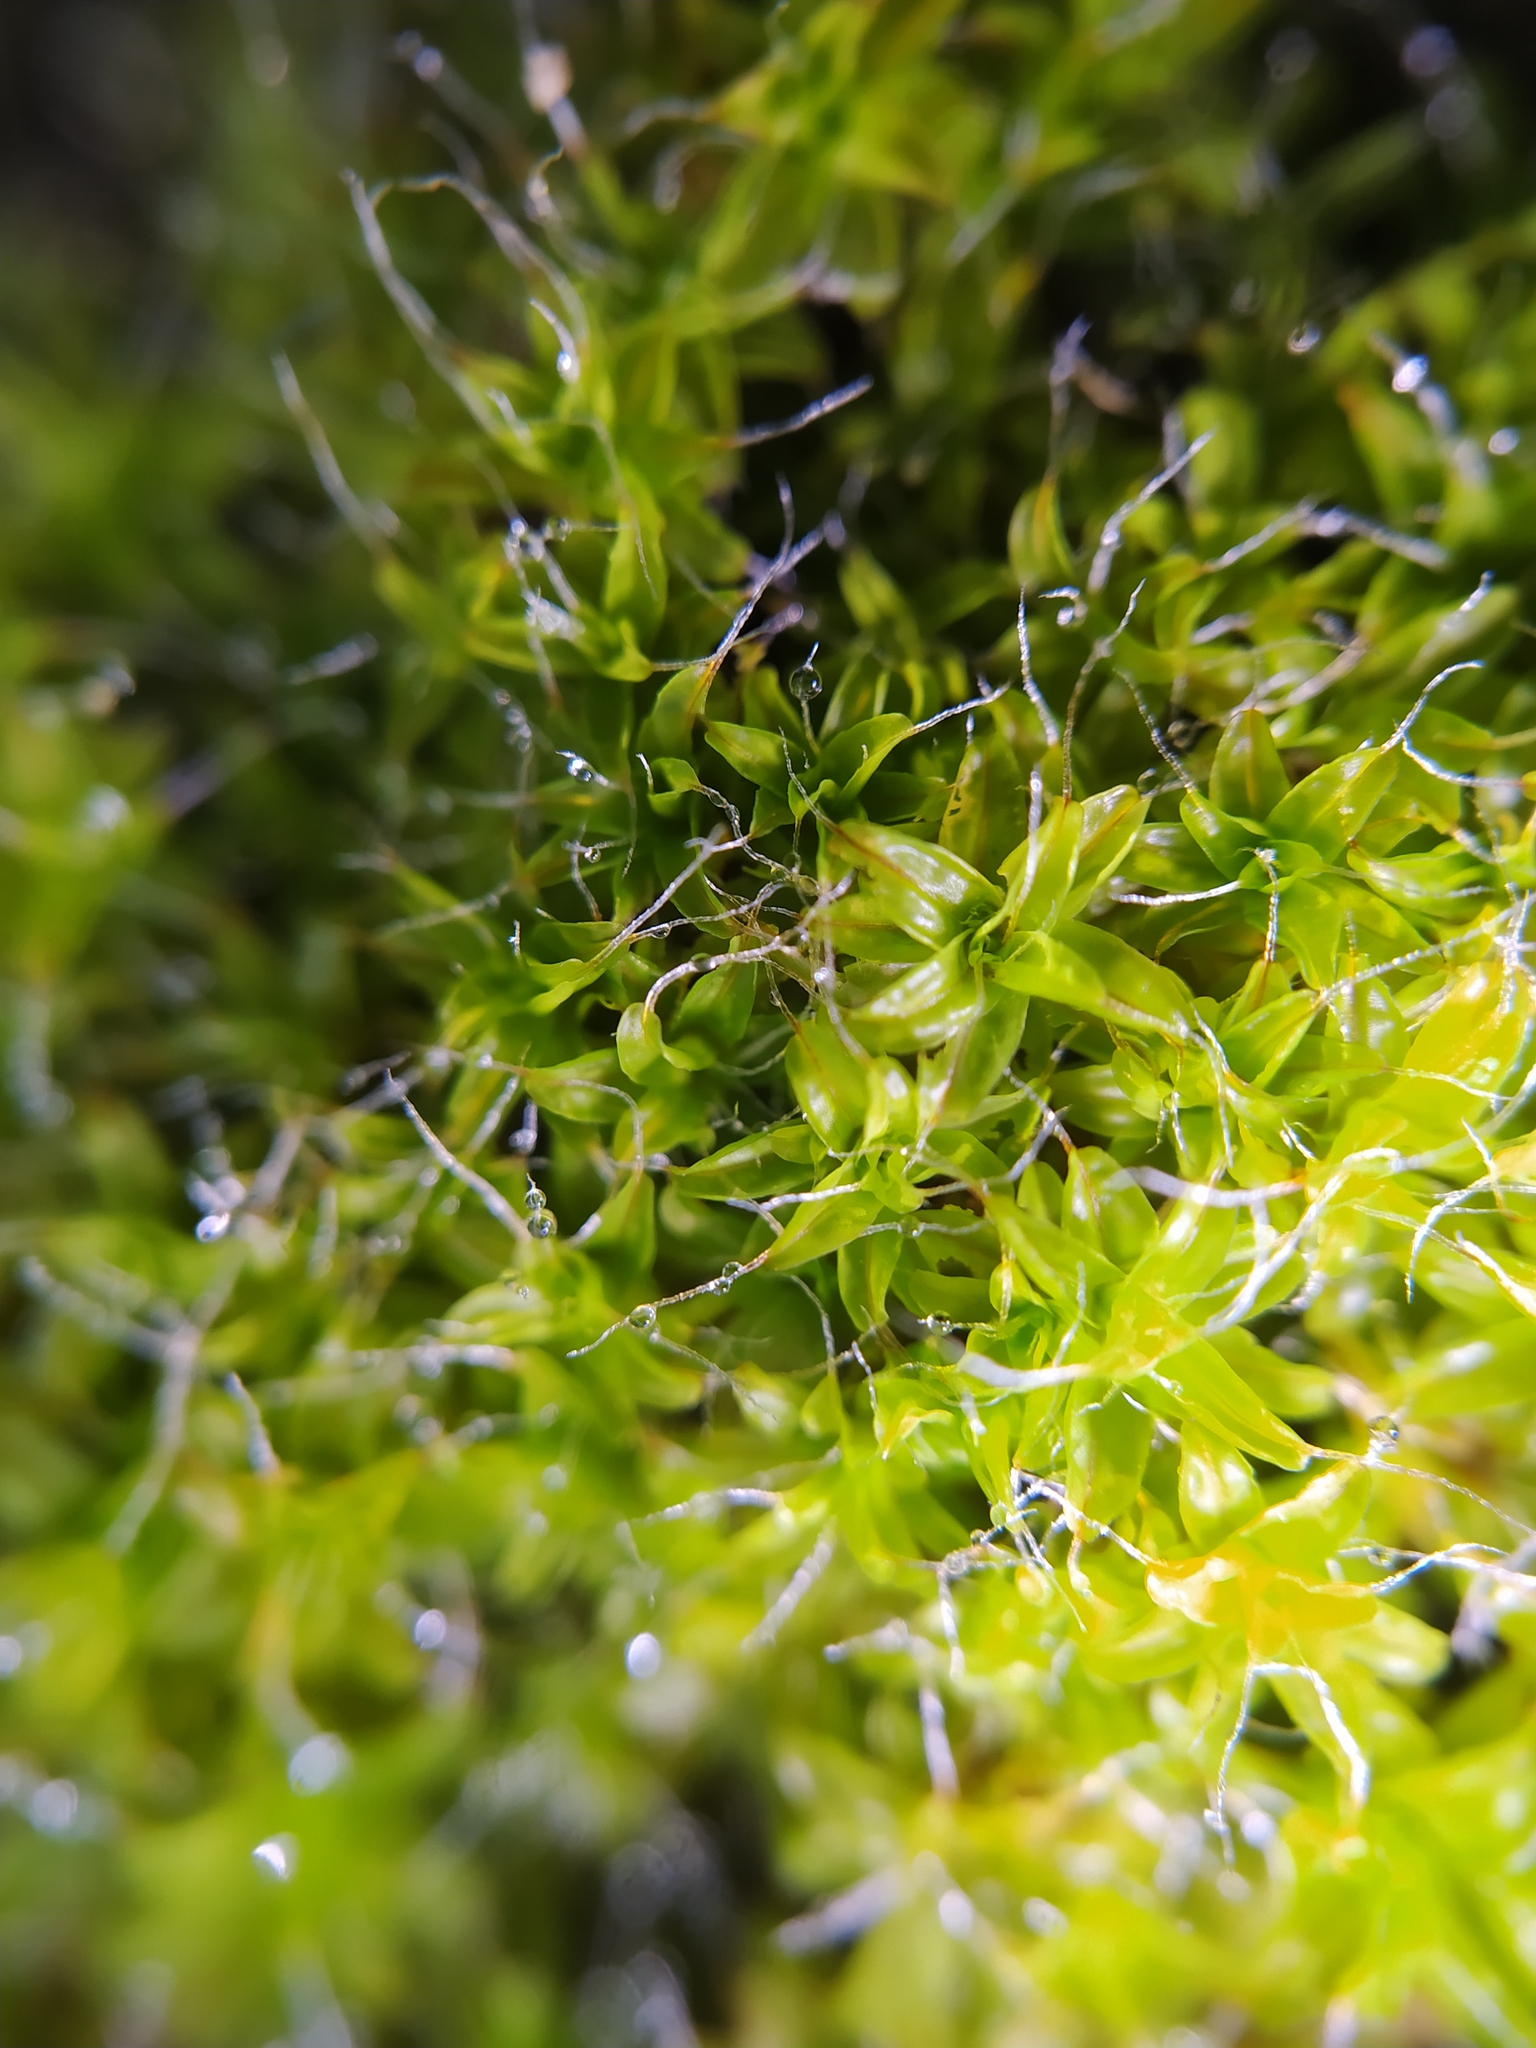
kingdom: Plantae
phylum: Bryophyta
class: Bryopsida
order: Pottiales
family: Pottiaceae
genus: Syntrichia
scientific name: Syntrichia virescens
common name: Lesser screw-moss
